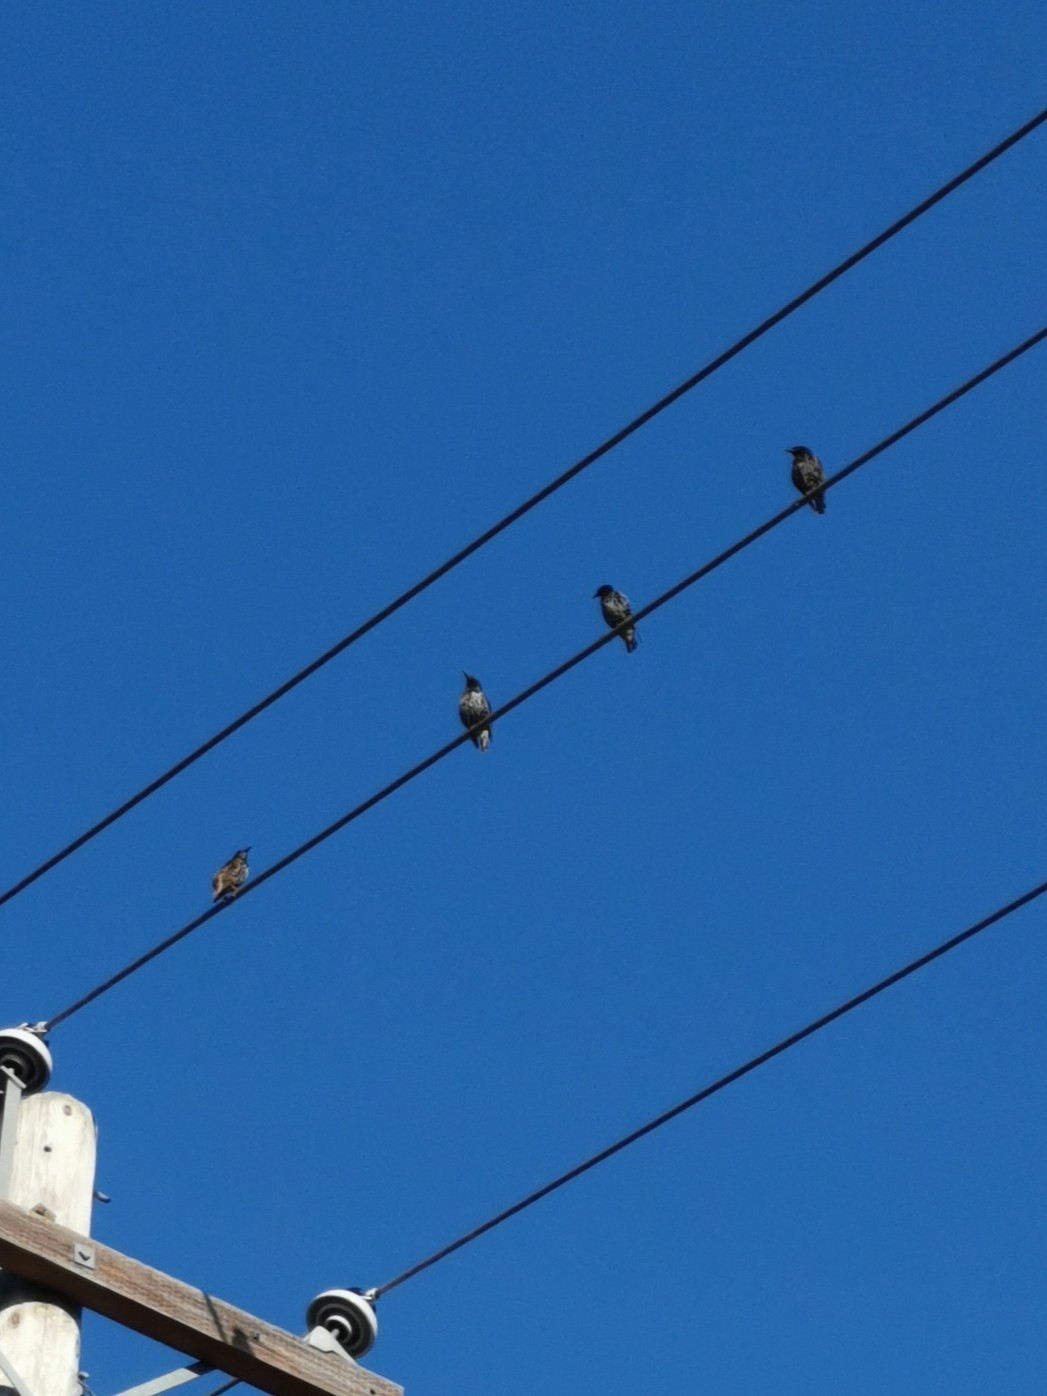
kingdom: Animalia
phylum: Chordata
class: Aves
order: Passeriformes
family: Sturnidae
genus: Sturnus
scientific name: Sturnus vulgaris
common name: Common starling
